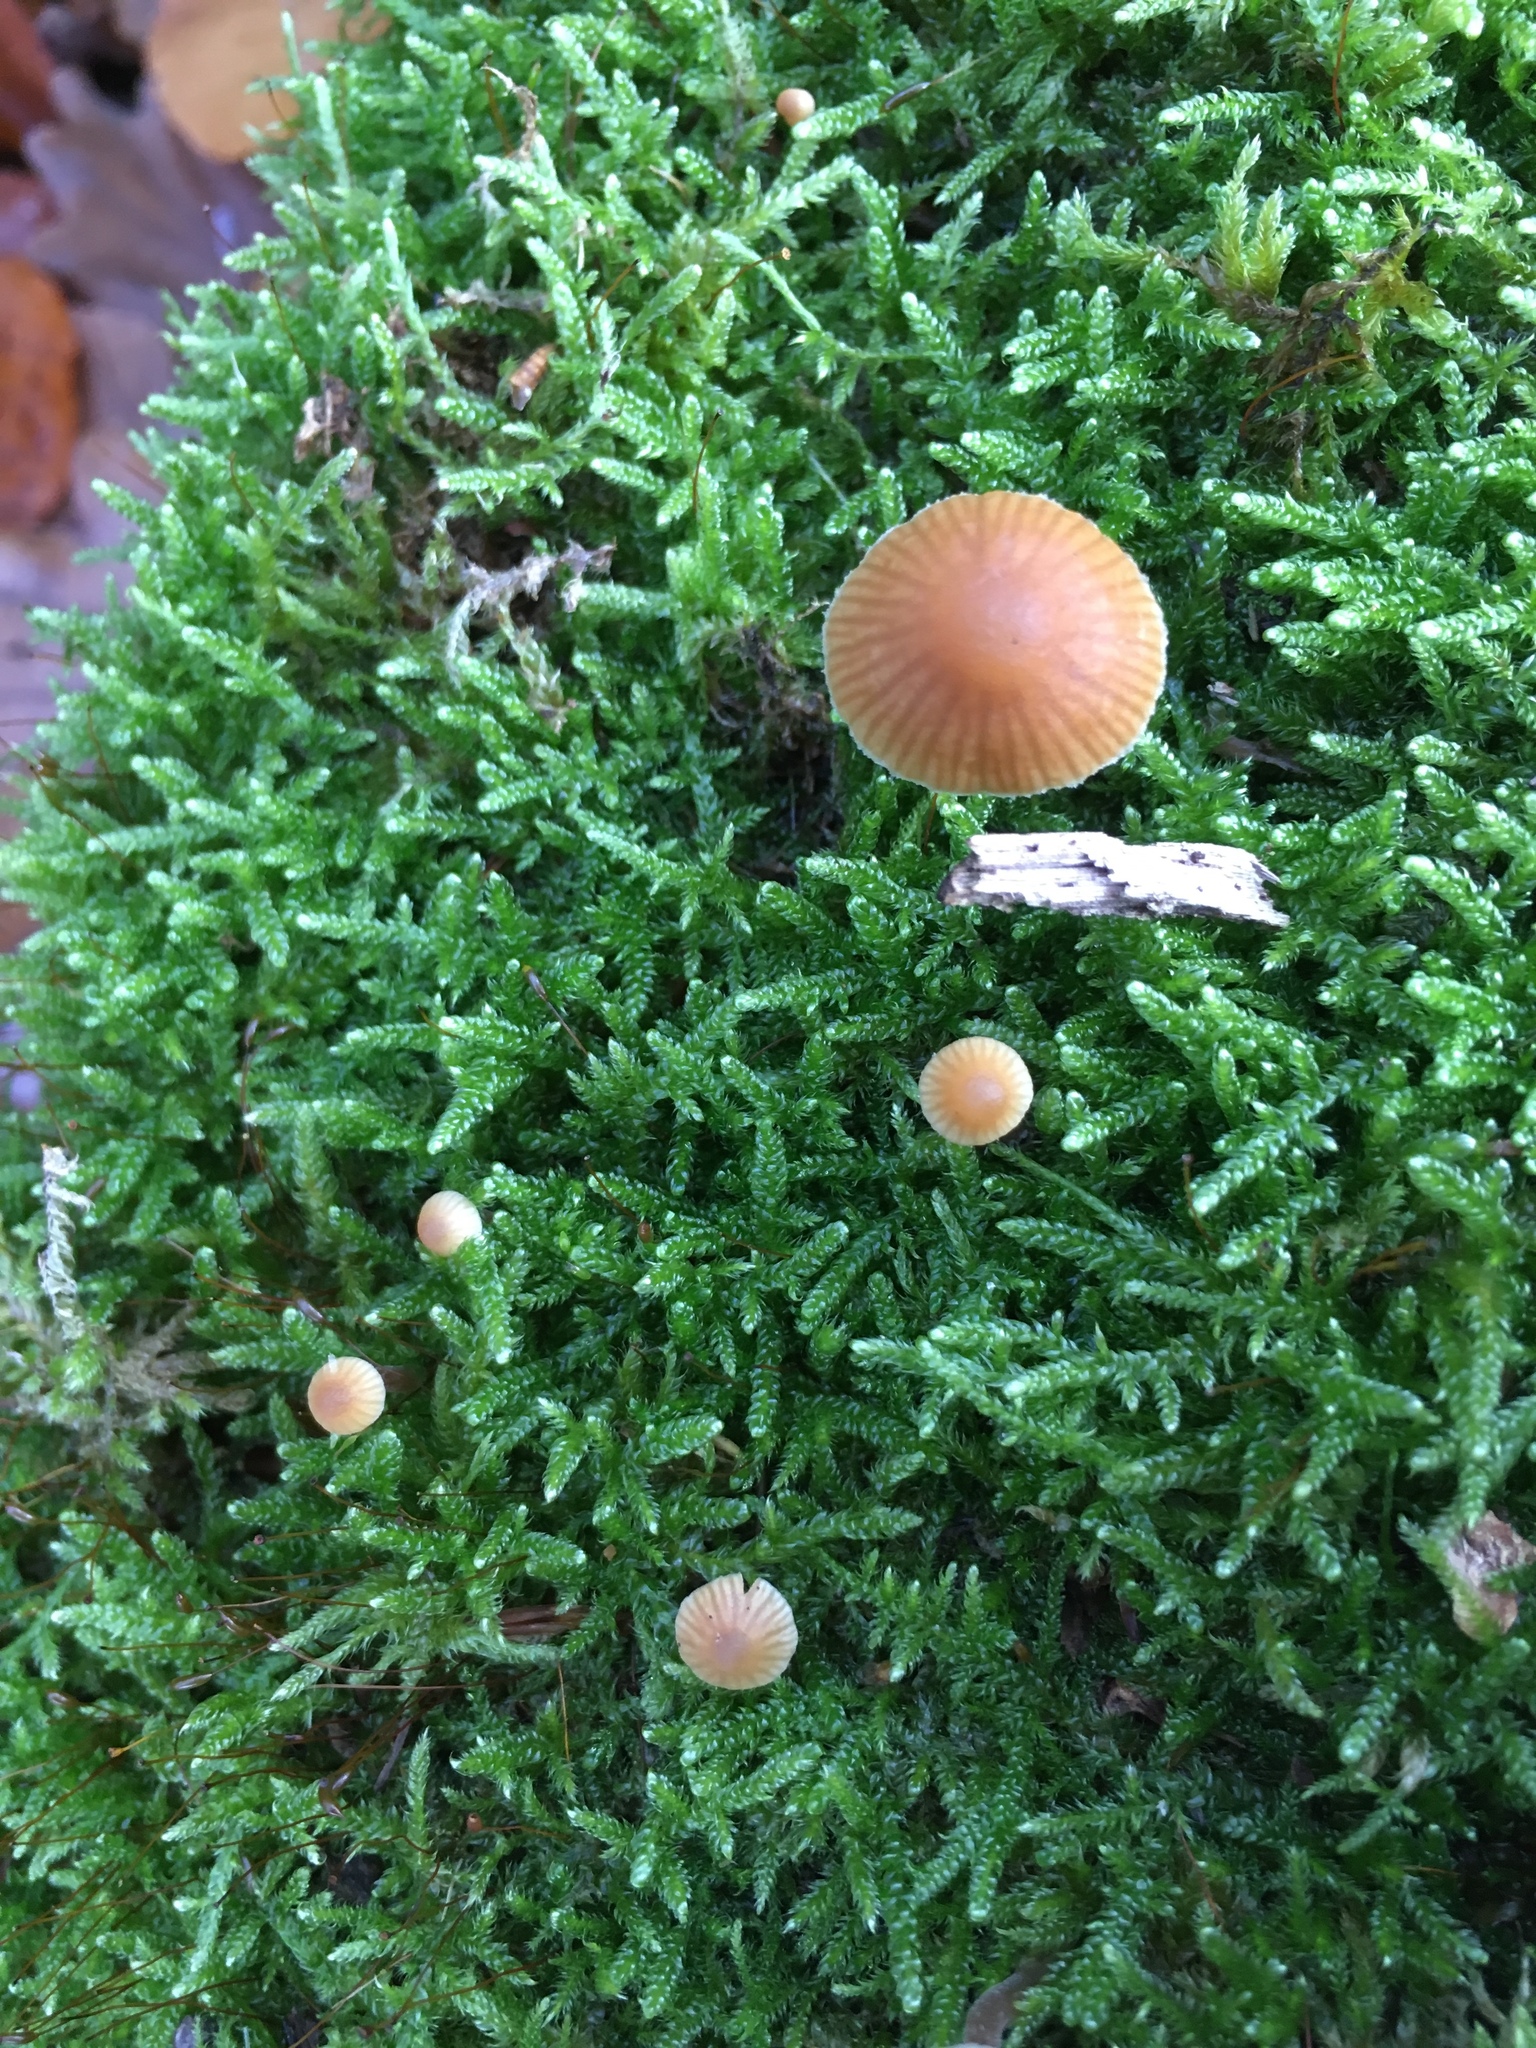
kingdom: Fungi
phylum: Basidiomycota
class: Agaricomycetes
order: Agaricales
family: Mycenaceae
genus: Mycena
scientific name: Mycena galericulata
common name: Bonnet mycena
